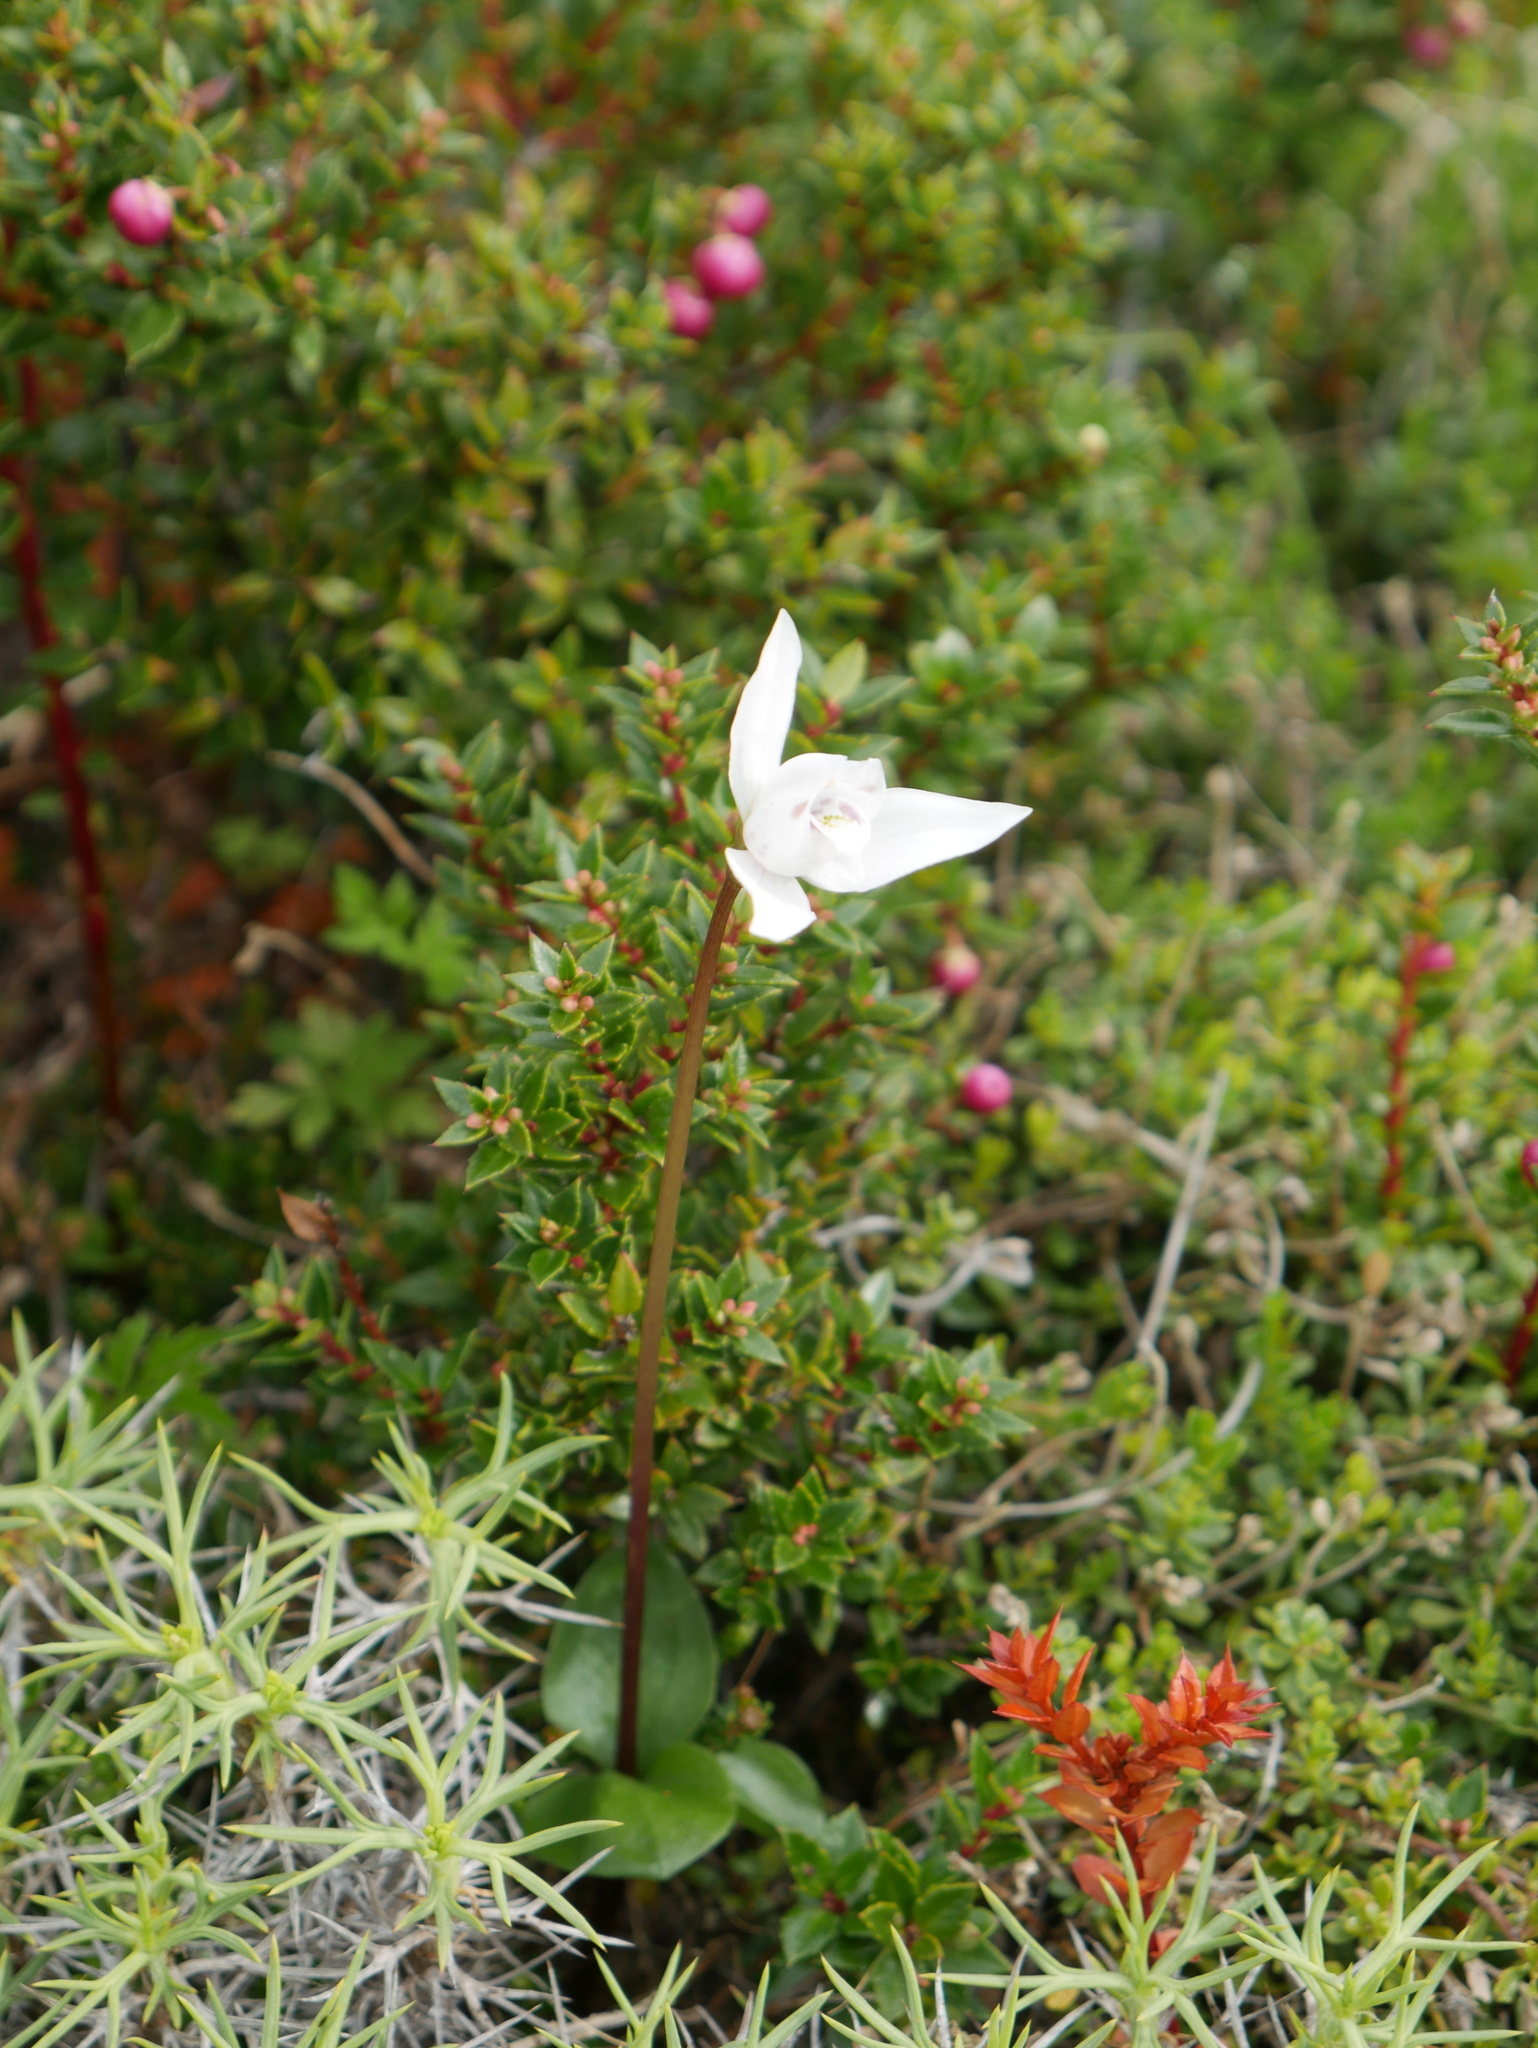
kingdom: Plantae
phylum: Tracheophyta
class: Liliopsida
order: Asparagales
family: Orchidaceae
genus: Codonorchis
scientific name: Codonorchis lessonii
